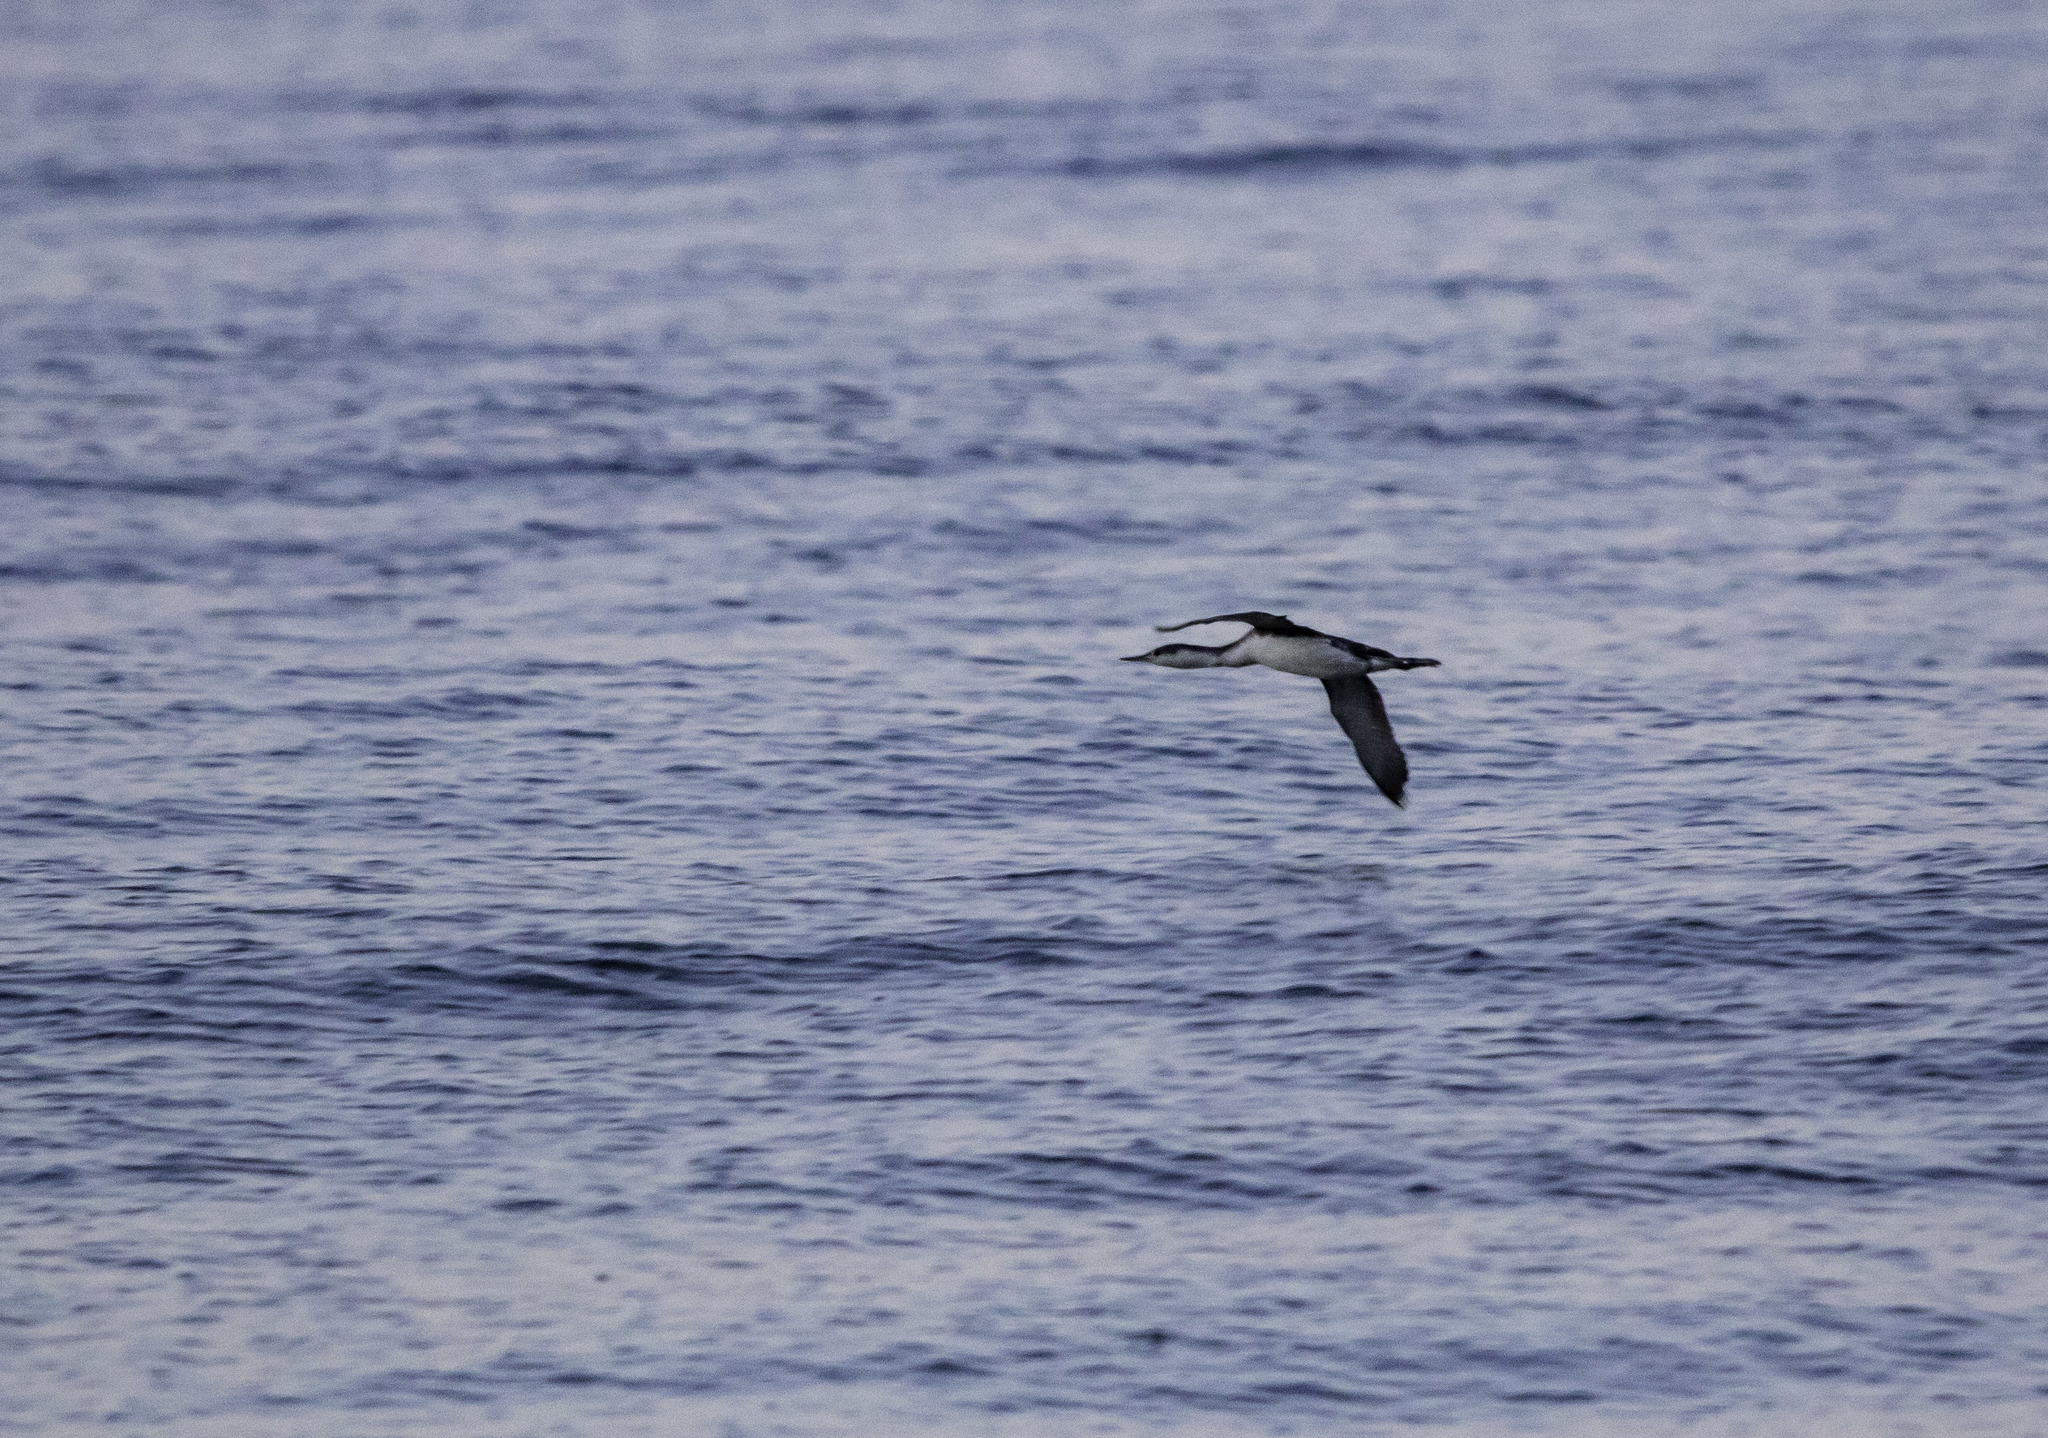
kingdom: Animalia
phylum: Chordata
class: Aves
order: Gaviiformes
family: Gaviidae
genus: Gavia
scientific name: Gavia stellata
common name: Red-throated loon
